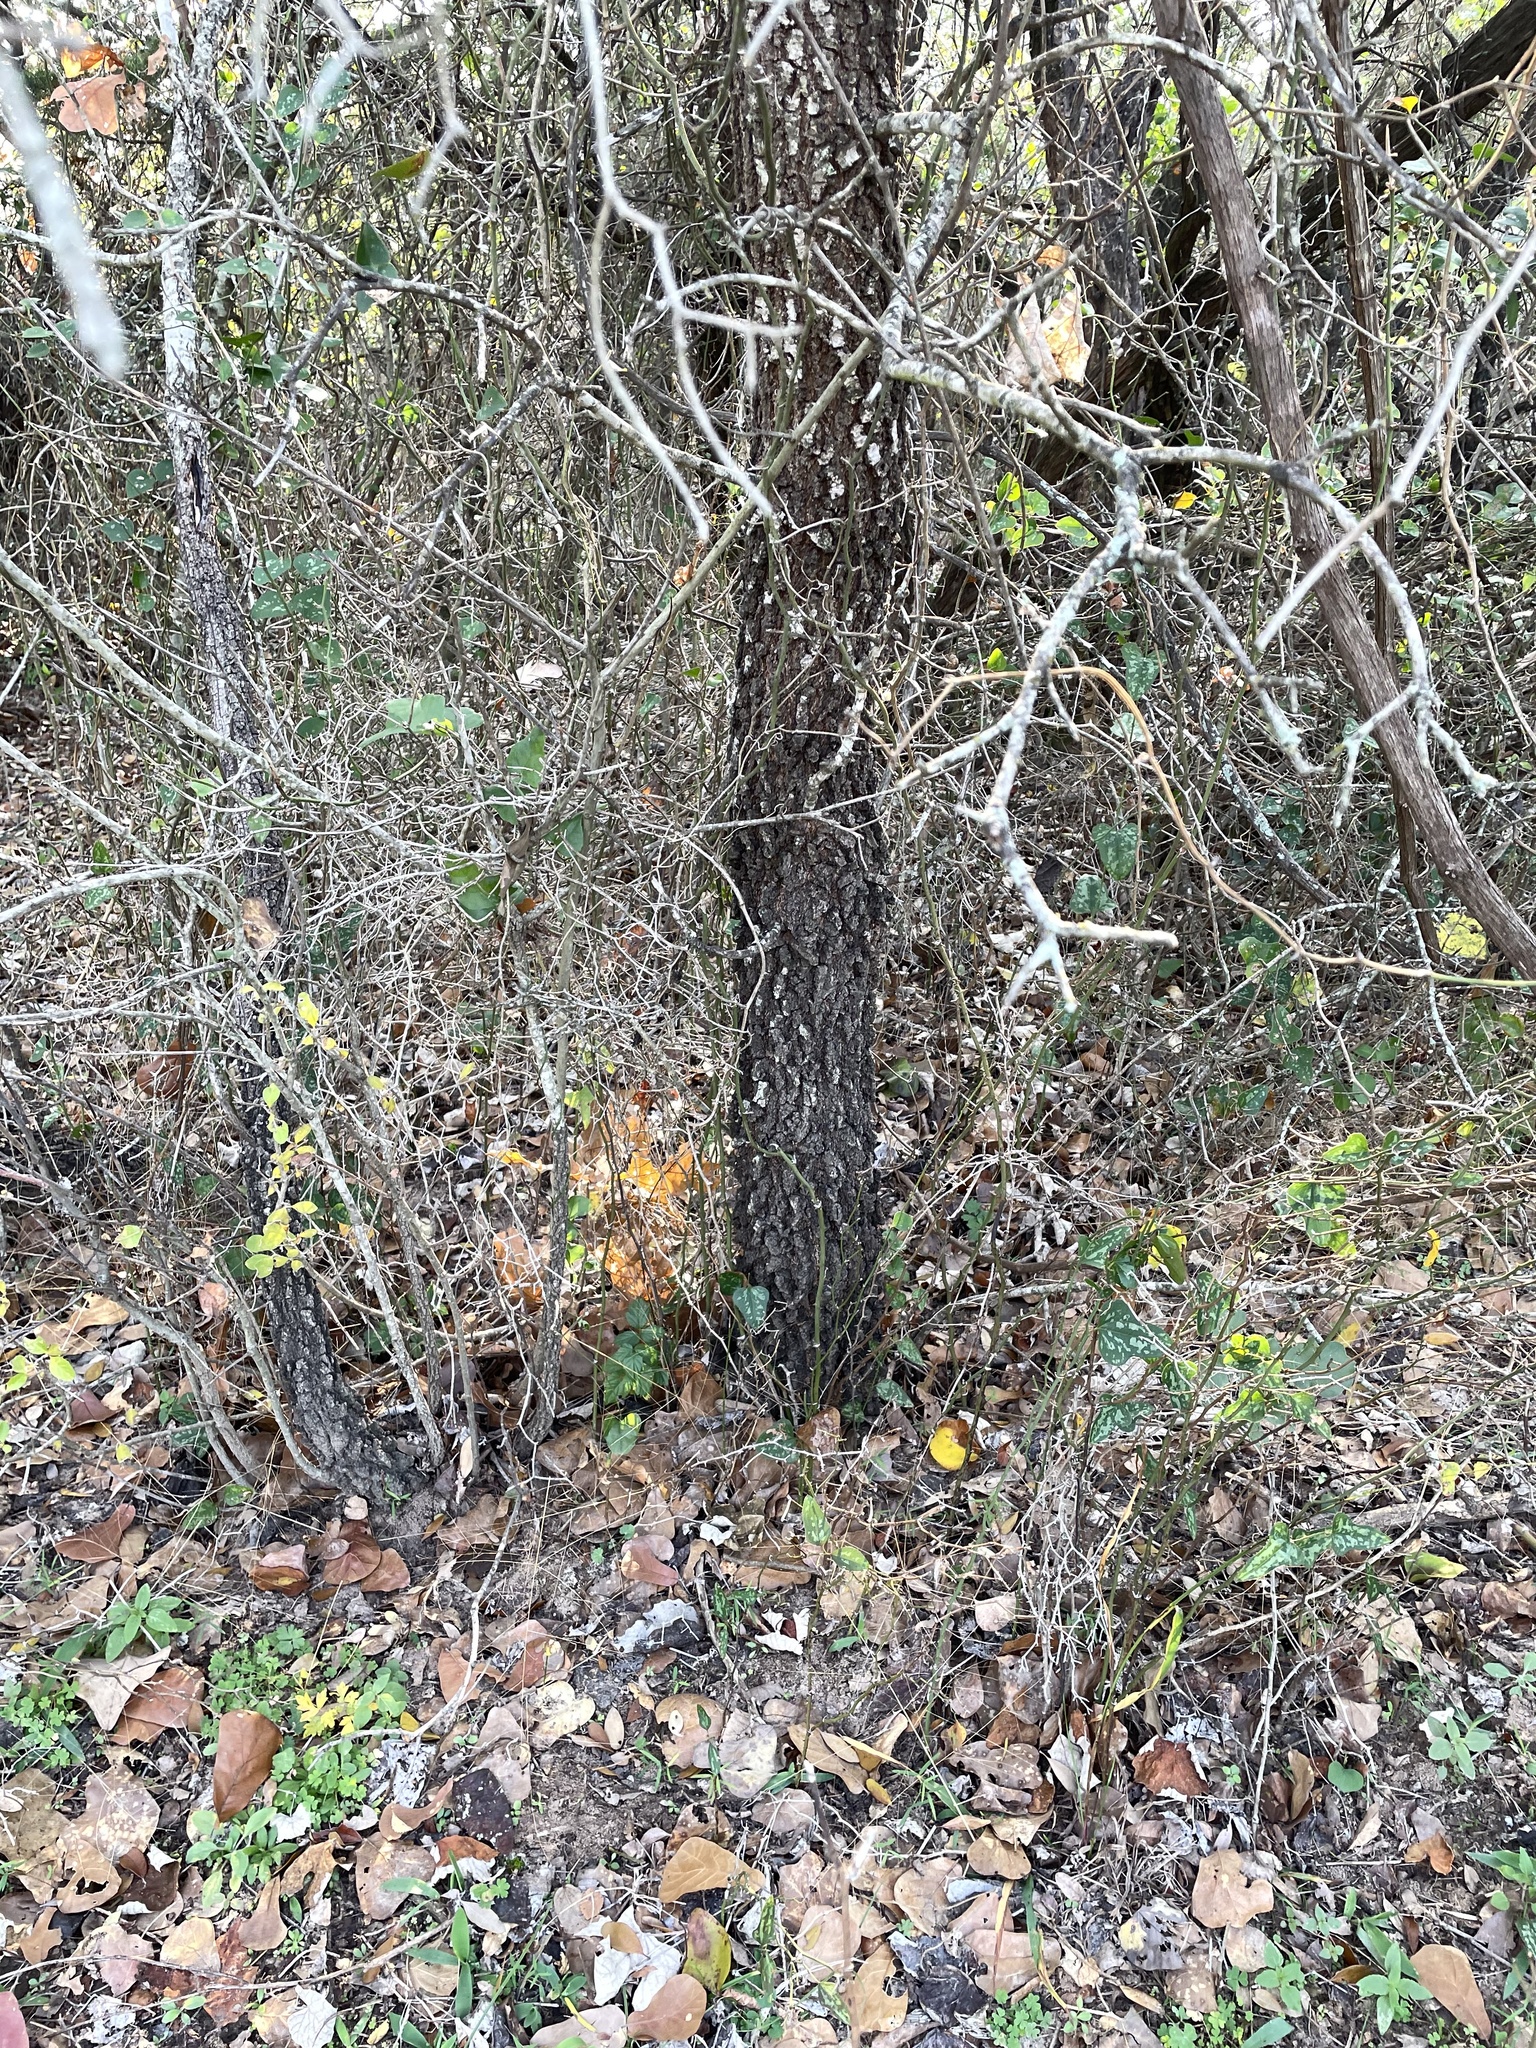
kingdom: Plantae
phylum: Tracheophyta
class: Magnoliopsida
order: Fagales
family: Fagaceae
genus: Quercus
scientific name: Quercus marilandica
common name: Blackjack oak
